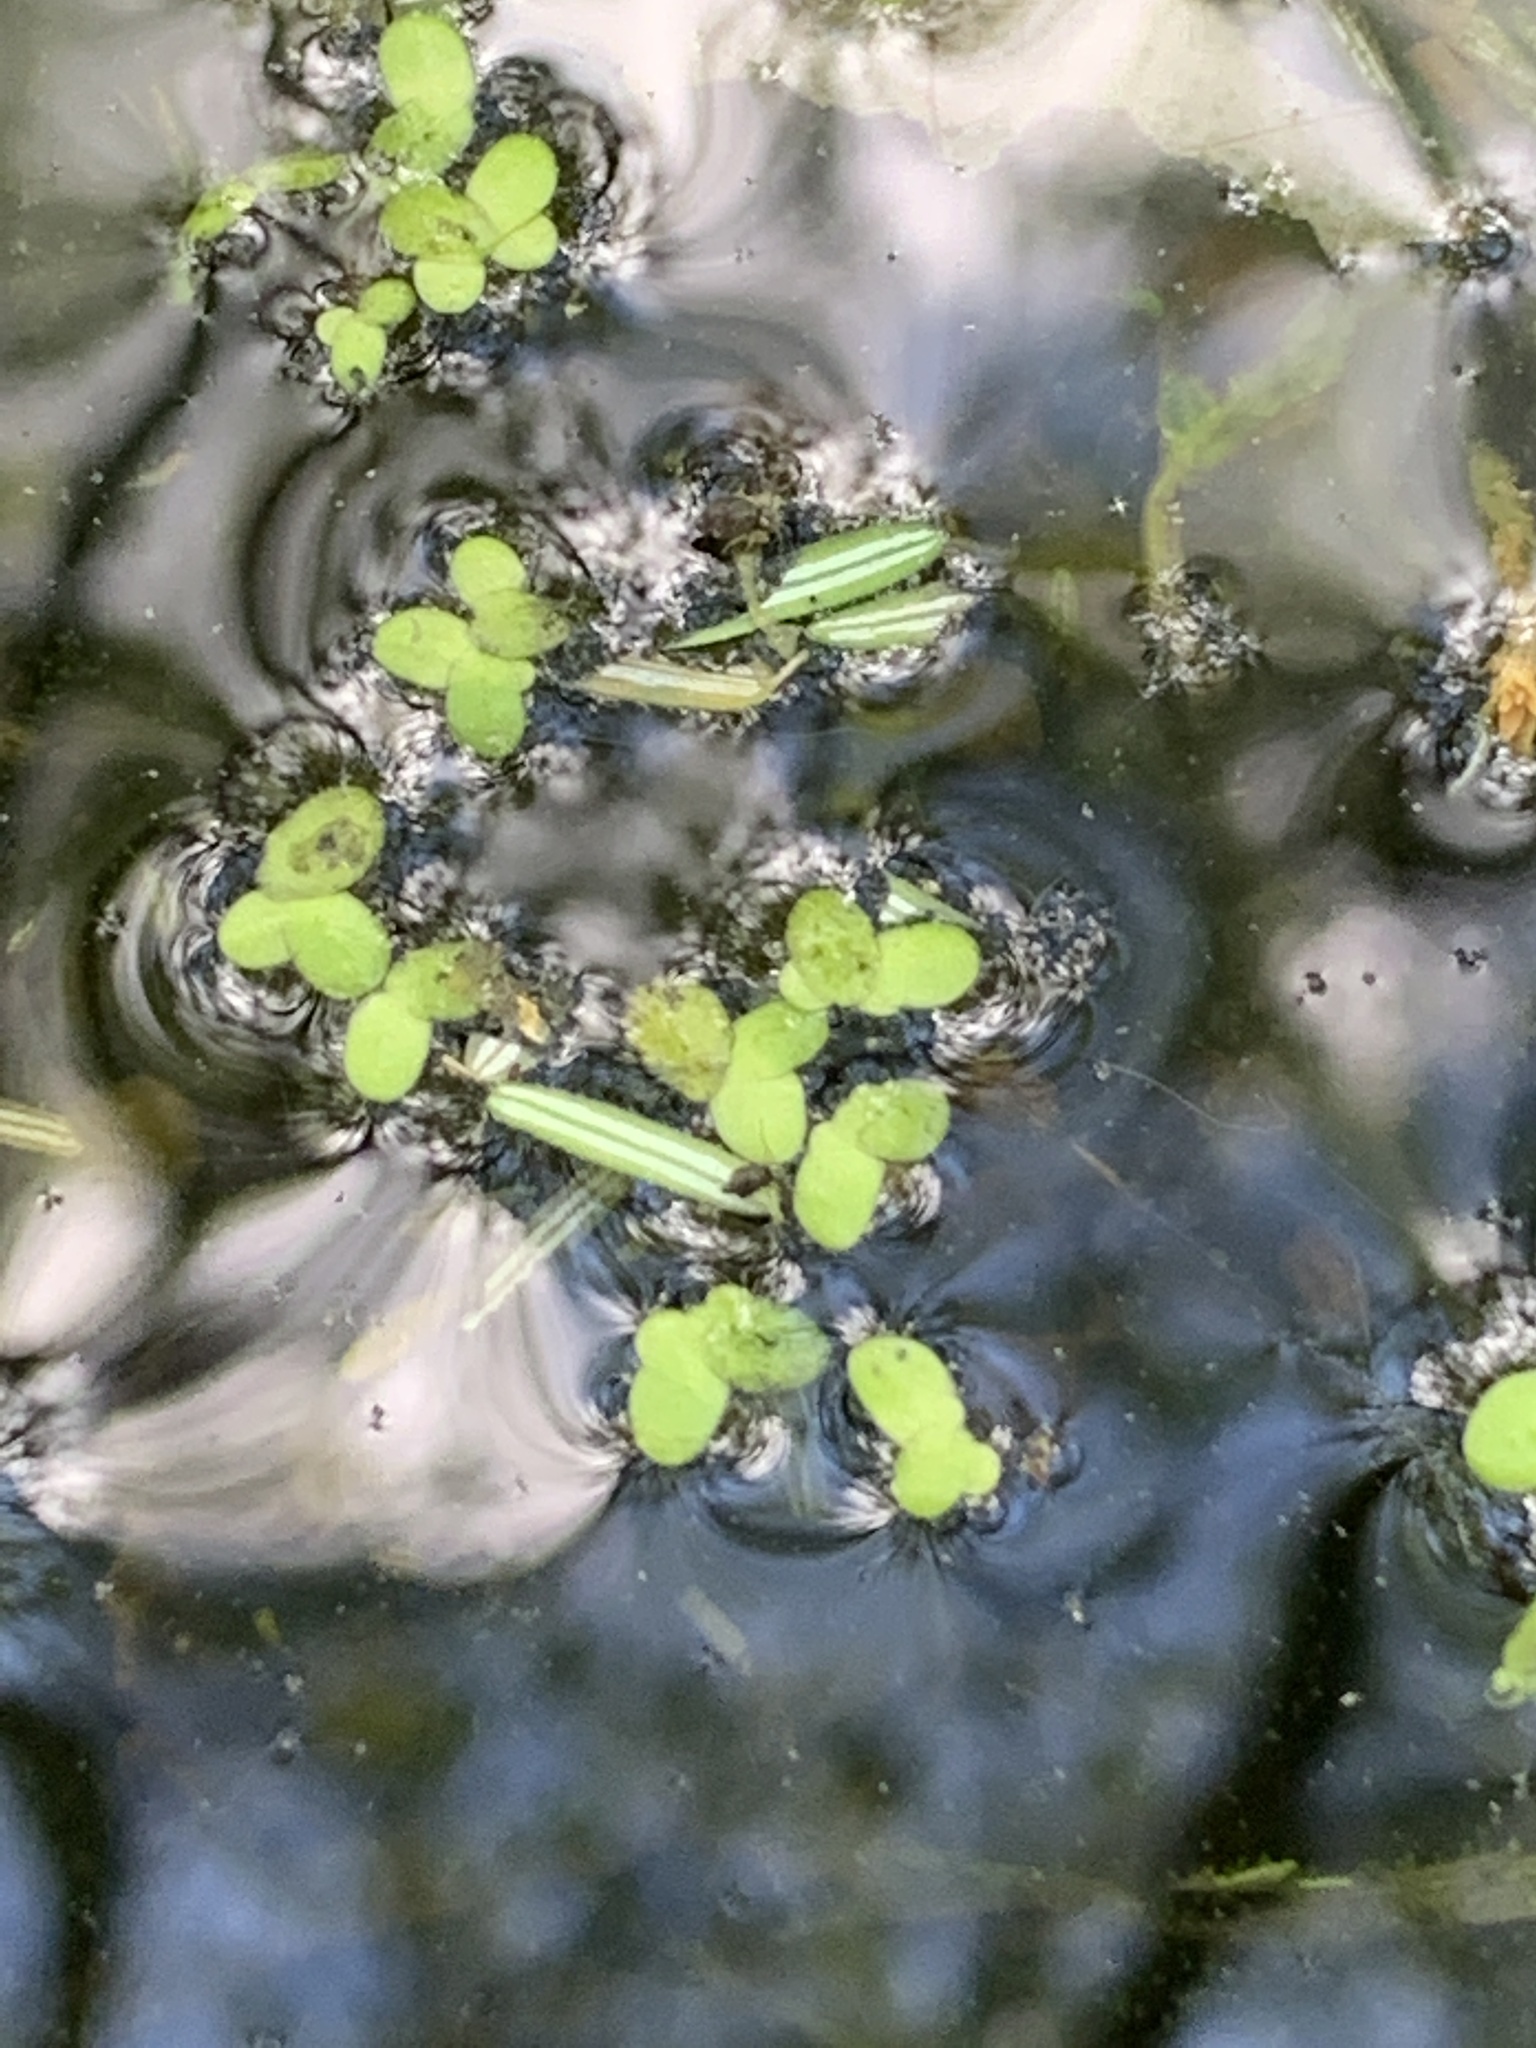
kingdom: Plantae
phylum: Tracheophyta
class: Liliopsida
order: Alismatales
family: Araceae
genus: Lemna
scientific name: Lemna minor
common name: Common duckweed
